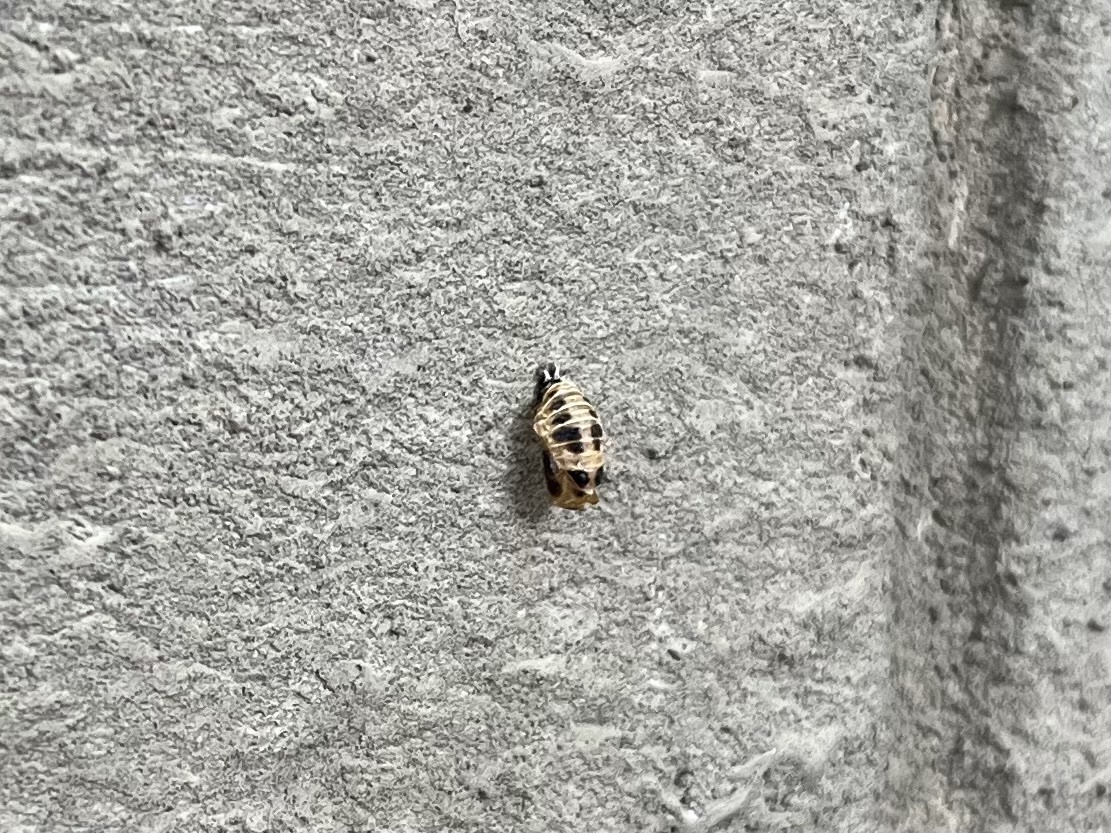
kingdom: Animalia
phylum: Arthropoda
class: Insecta
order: Coleoptera
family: Coccinellidae
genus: Harmonia
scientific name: Harmonia axyridis
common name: Harlequin ladybird
